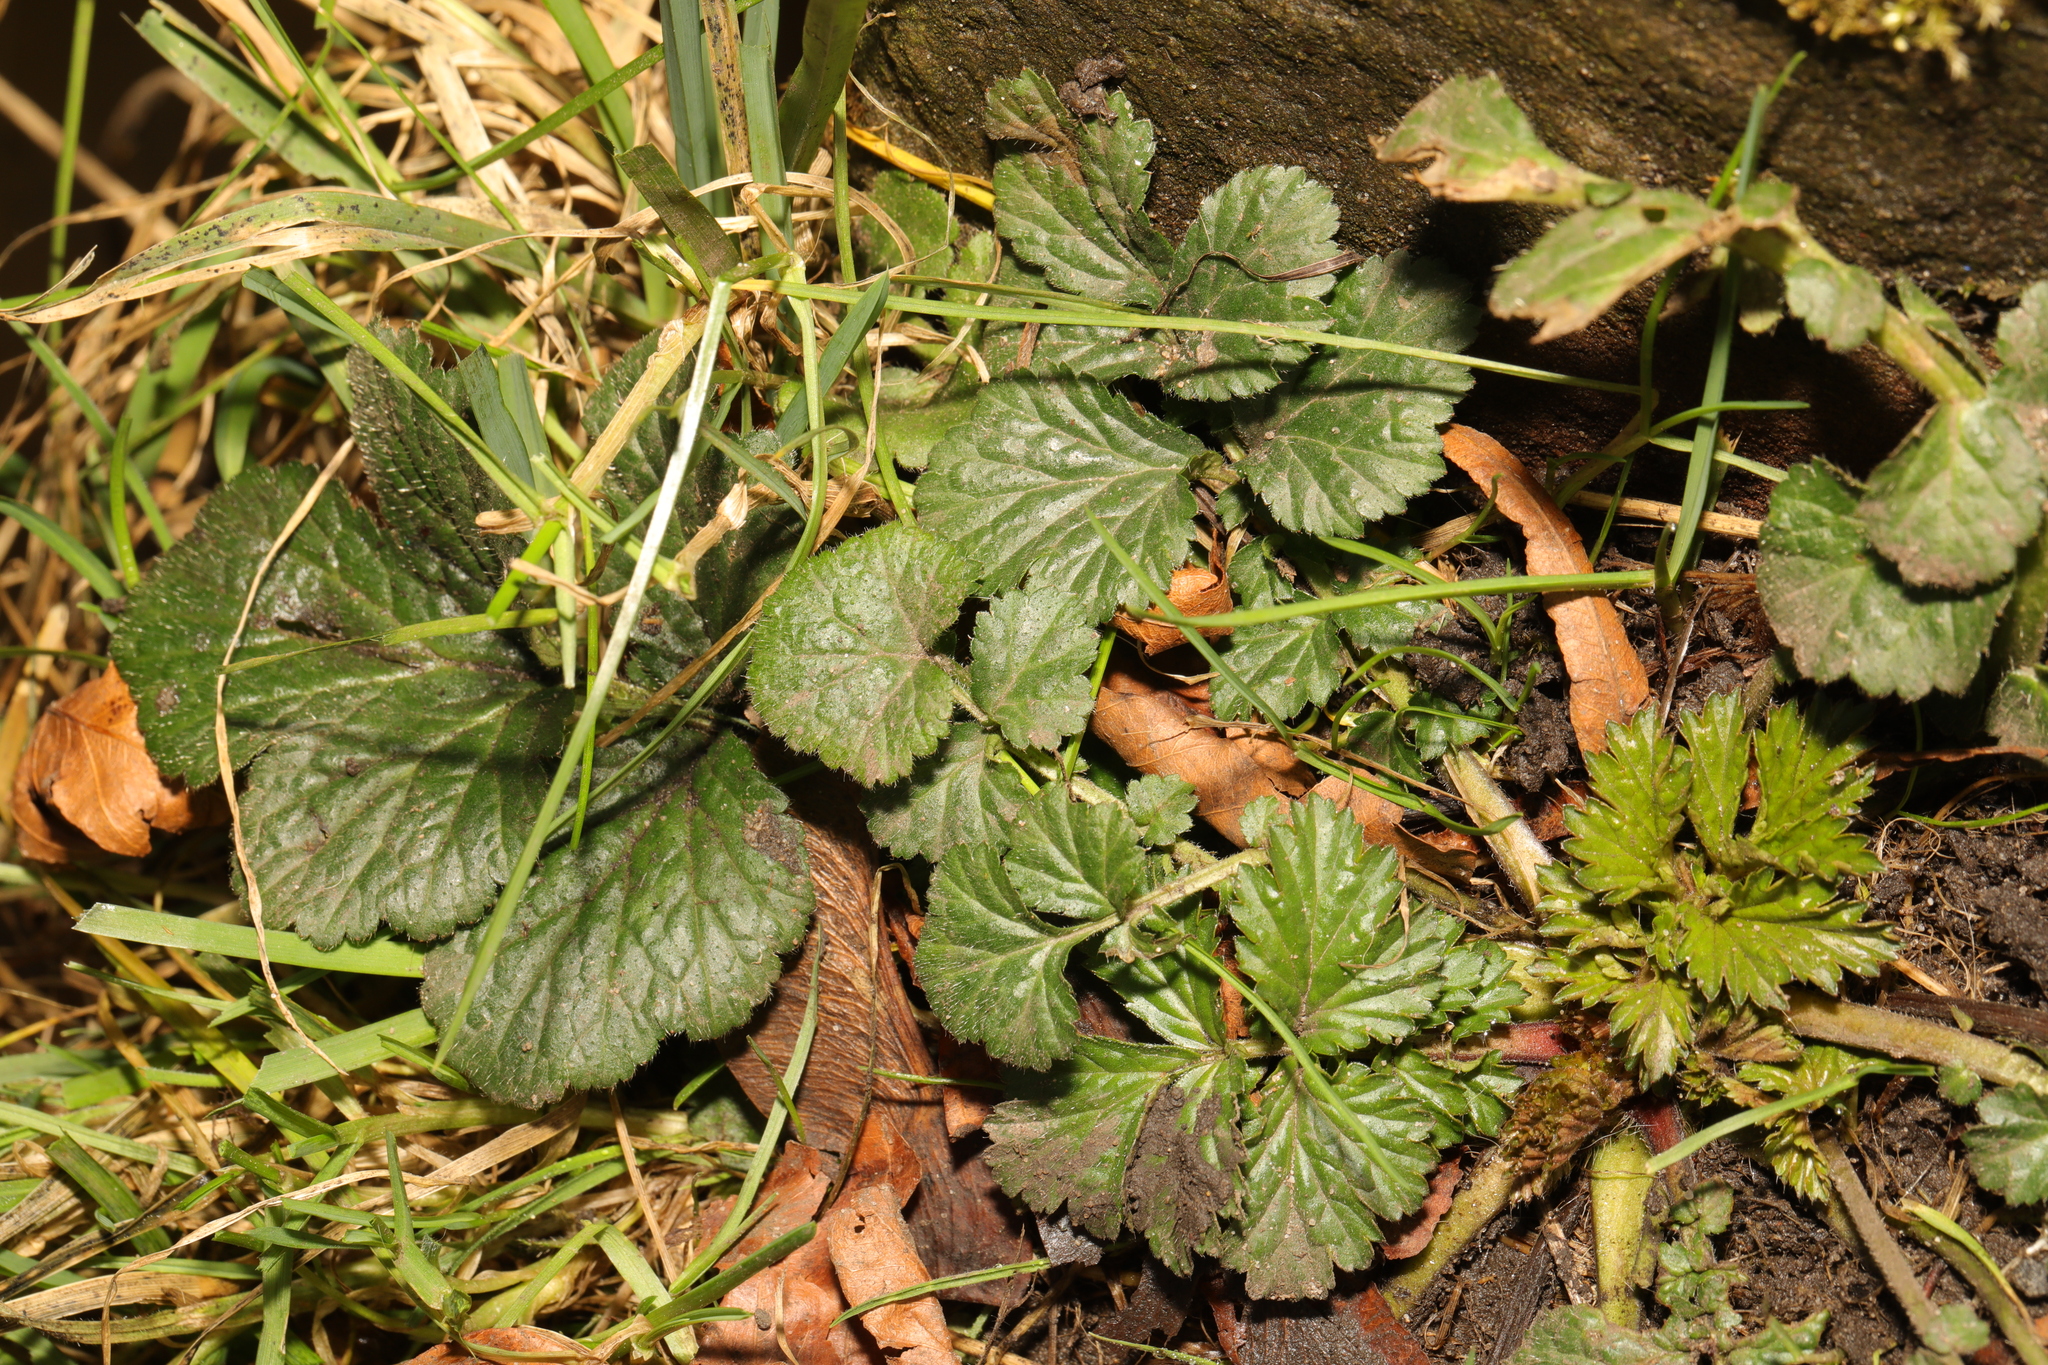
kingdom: Plantae
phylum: Tracheophyta
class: Magnoliopsida
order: Rosales
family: Rosaceae
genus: Geum
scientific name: Geum urbanum
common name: Wood avens
